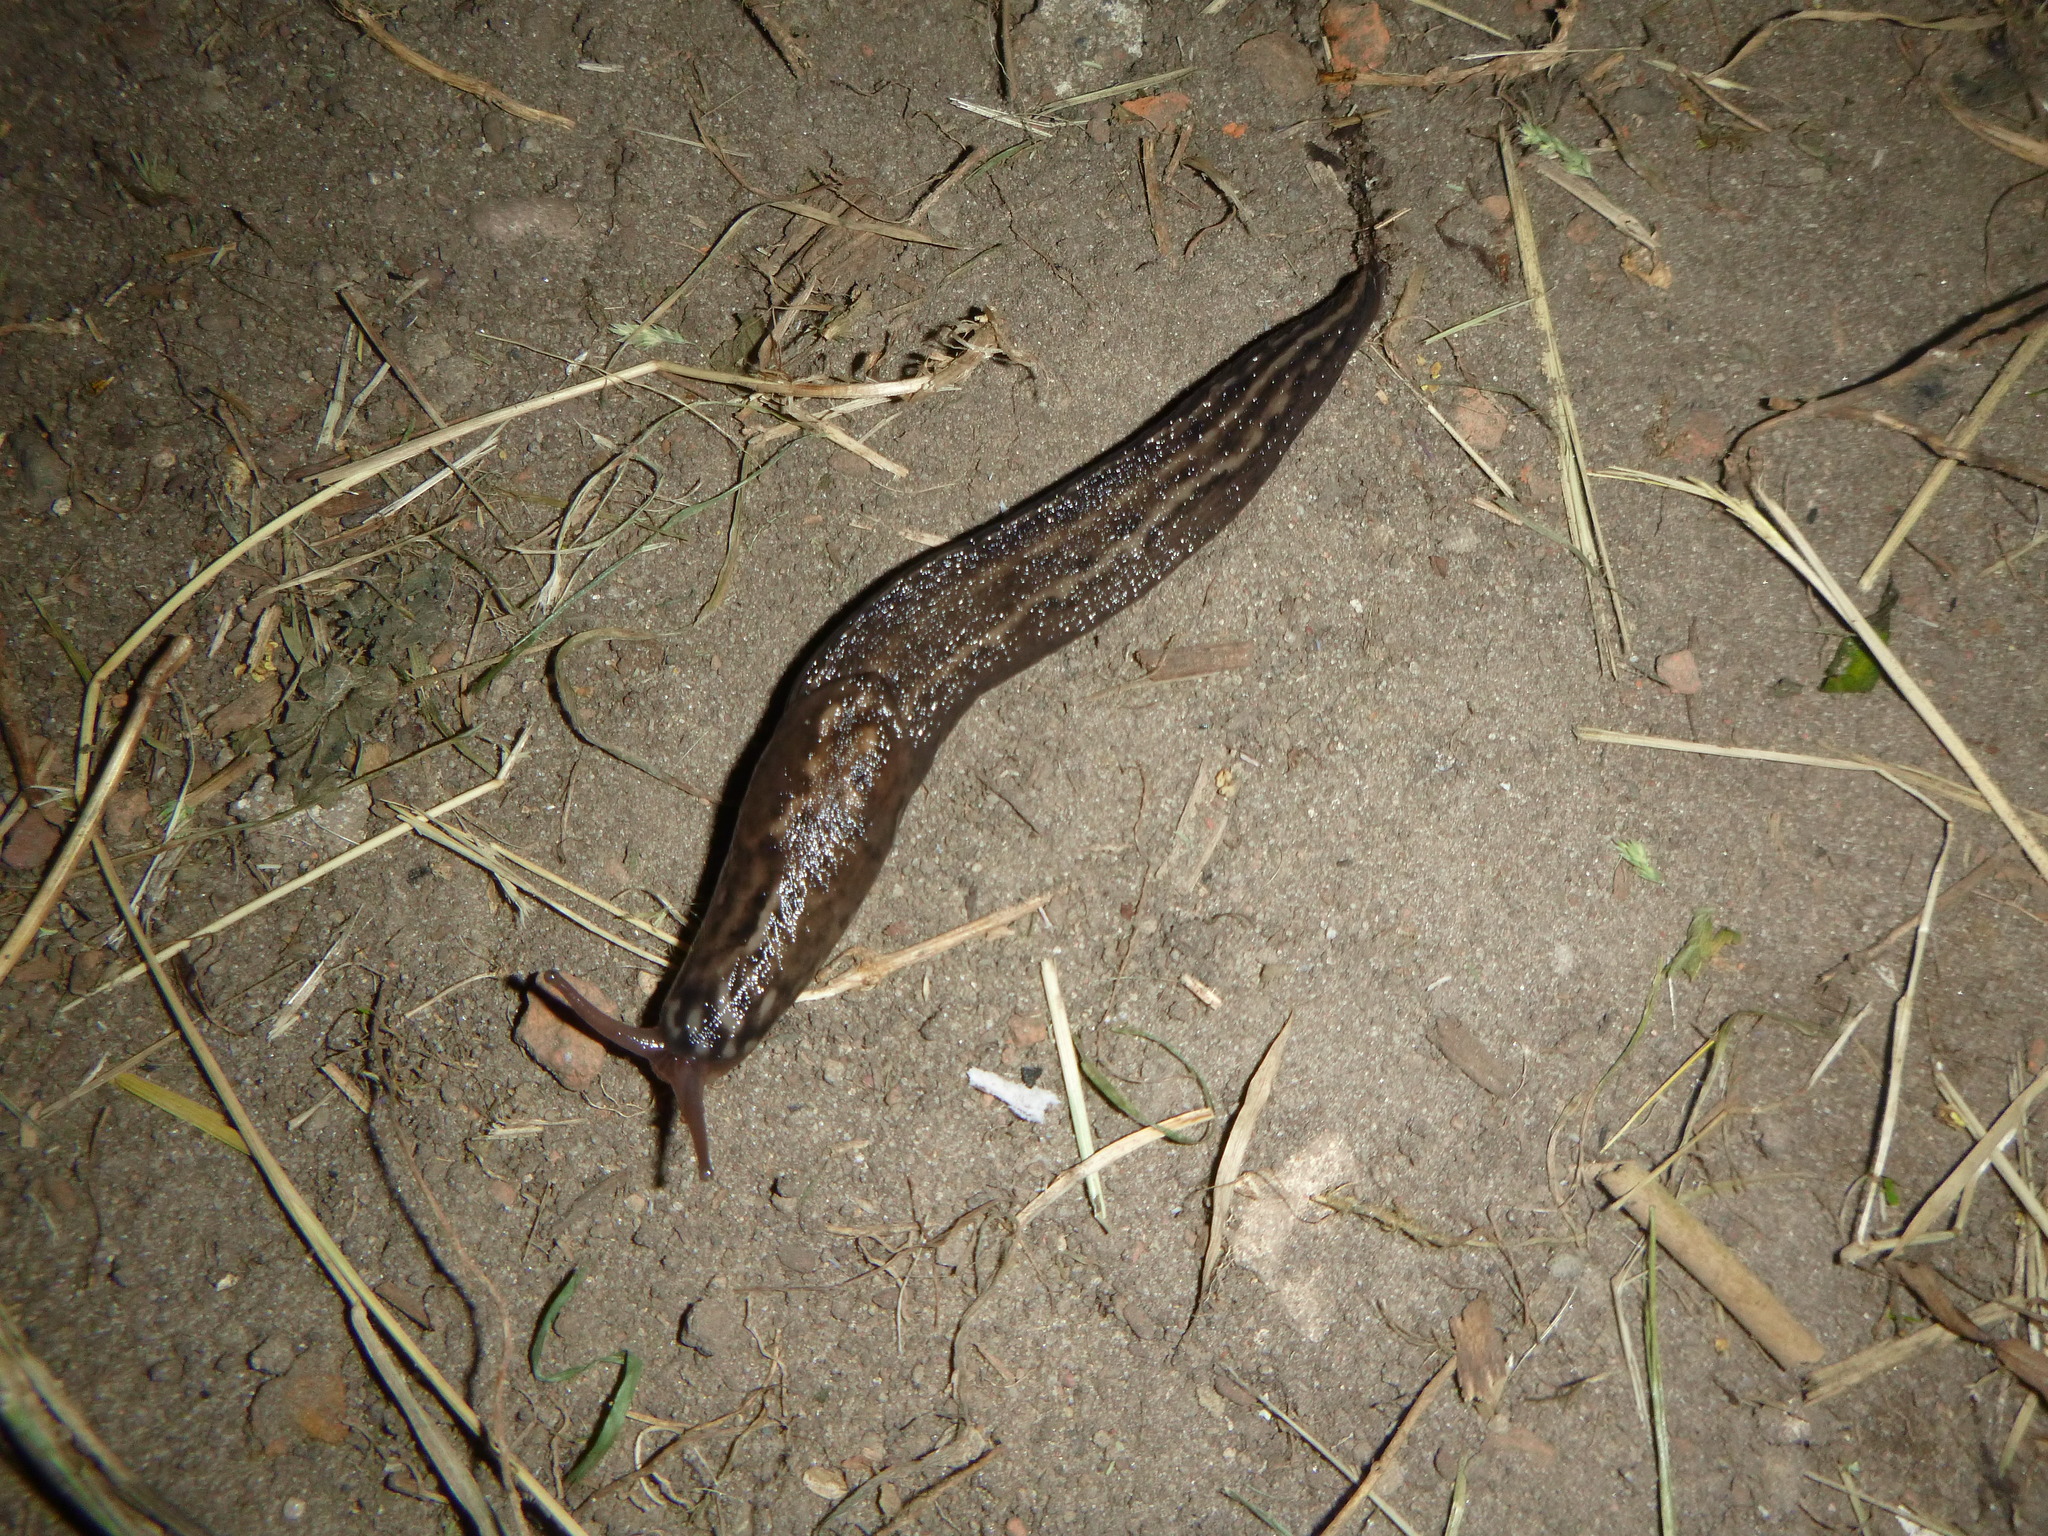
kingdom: Animalia
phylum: Mollusca
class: Gastropoda
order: Stylommatophora
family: Limacidae
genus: Limax
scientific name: Limax maximus
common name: Great grey slug
